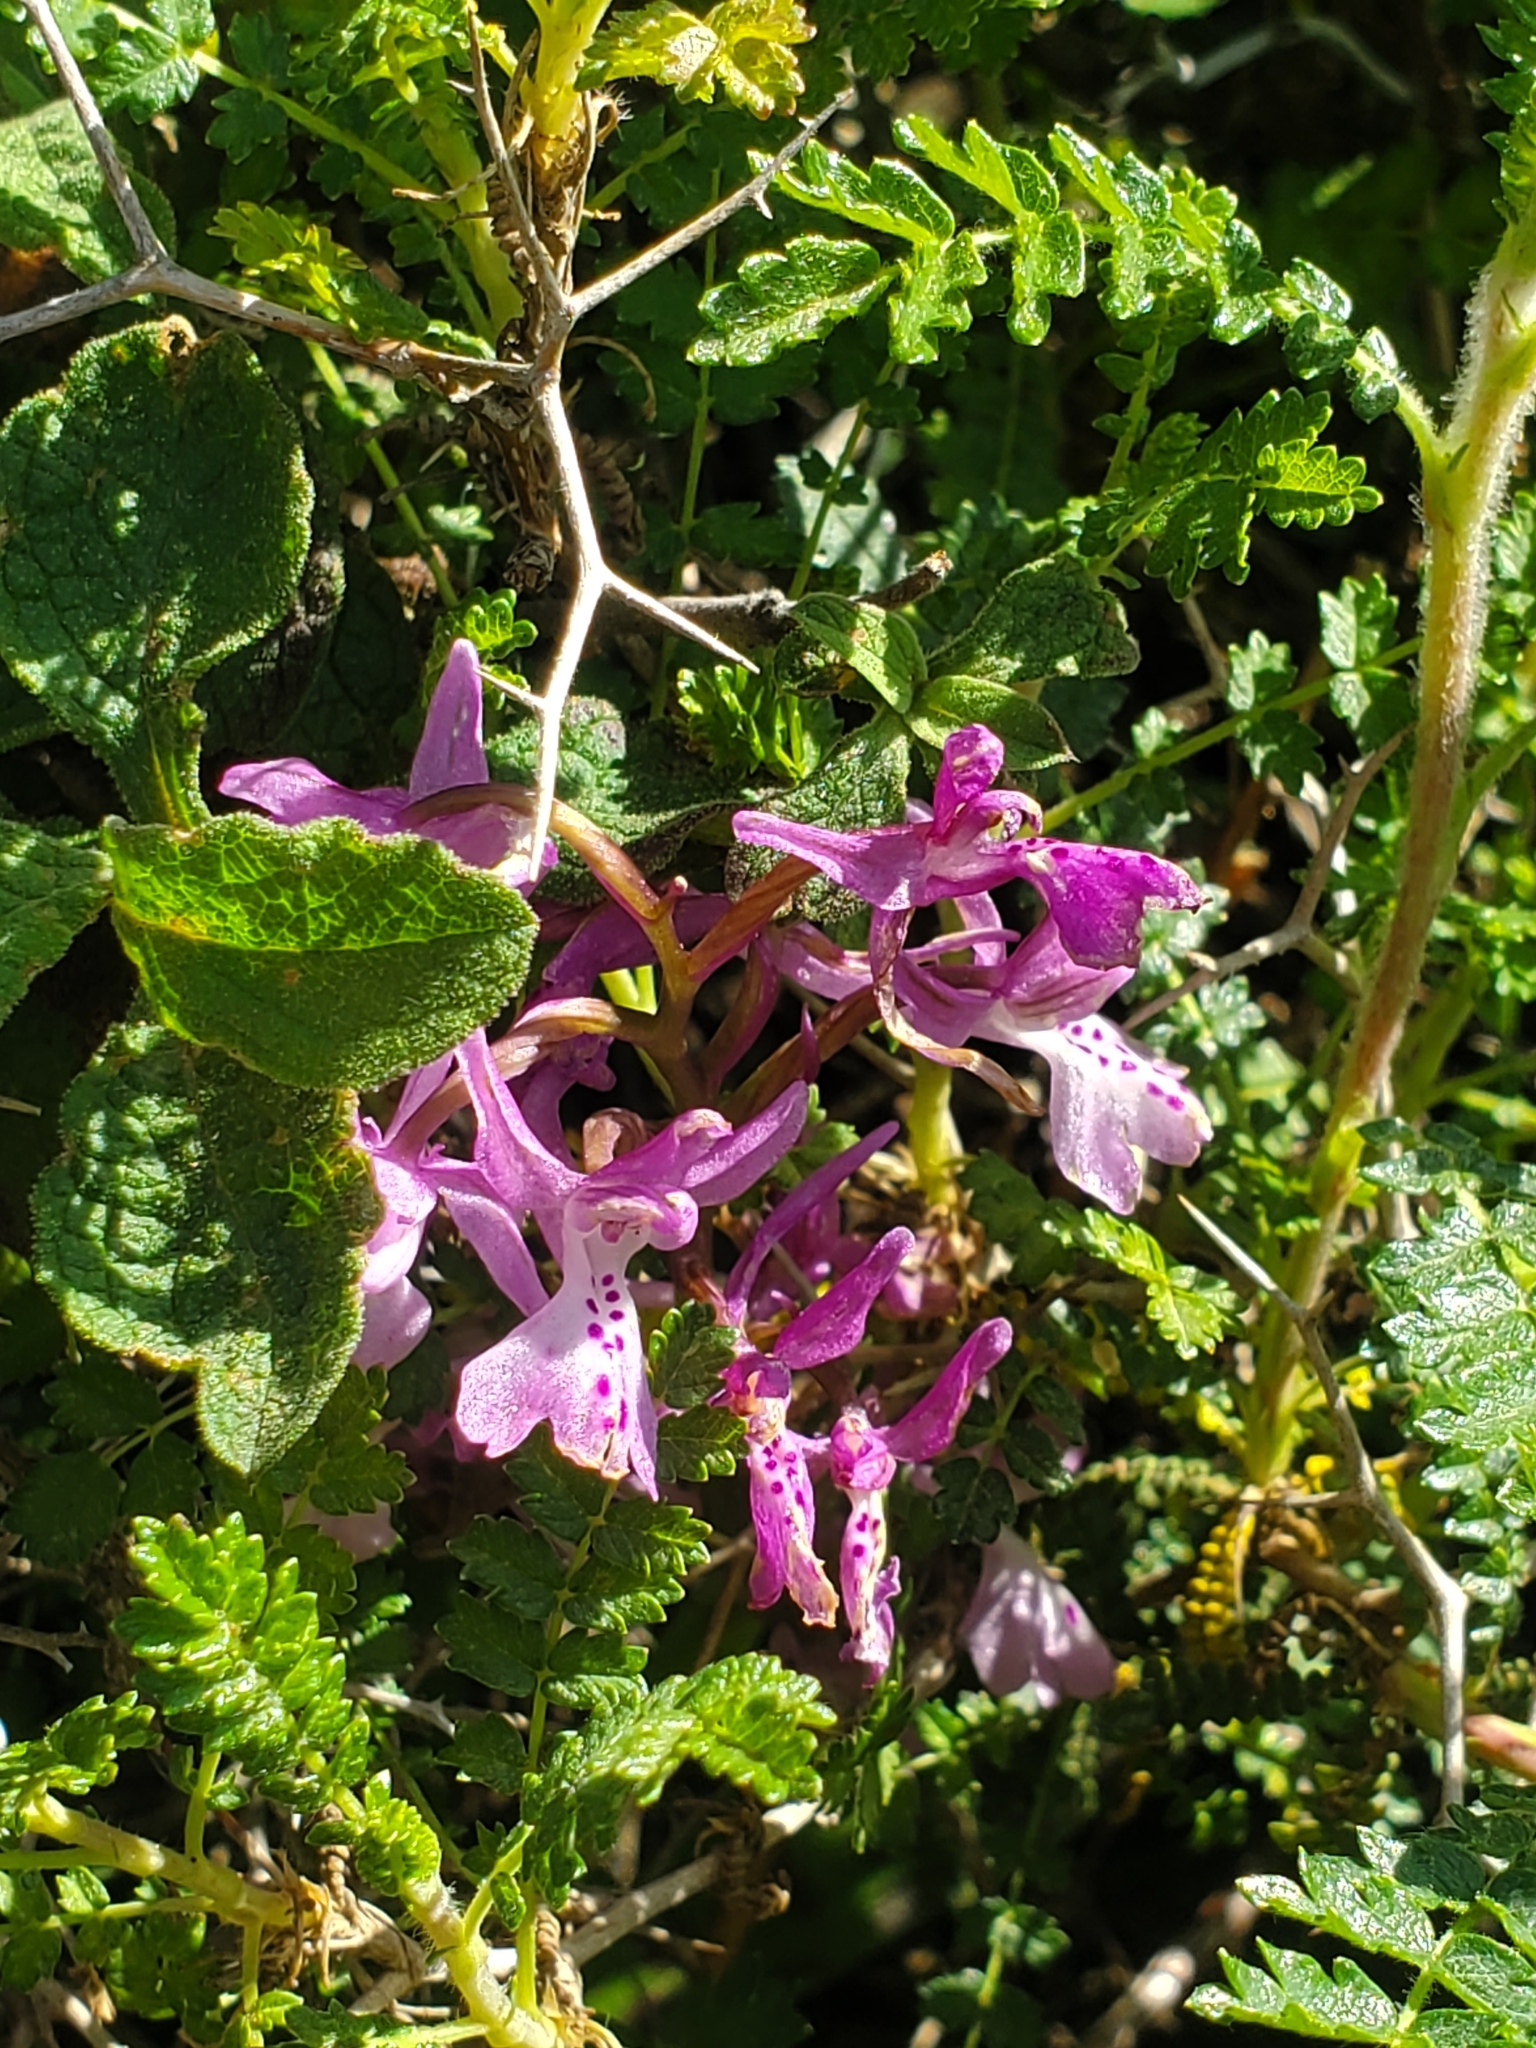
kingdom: Plantae
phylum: Tracheophyta
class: Liliopsida
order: Asparagales
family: Orchidaceae
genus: Orchis
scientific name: Orchis anatolica
